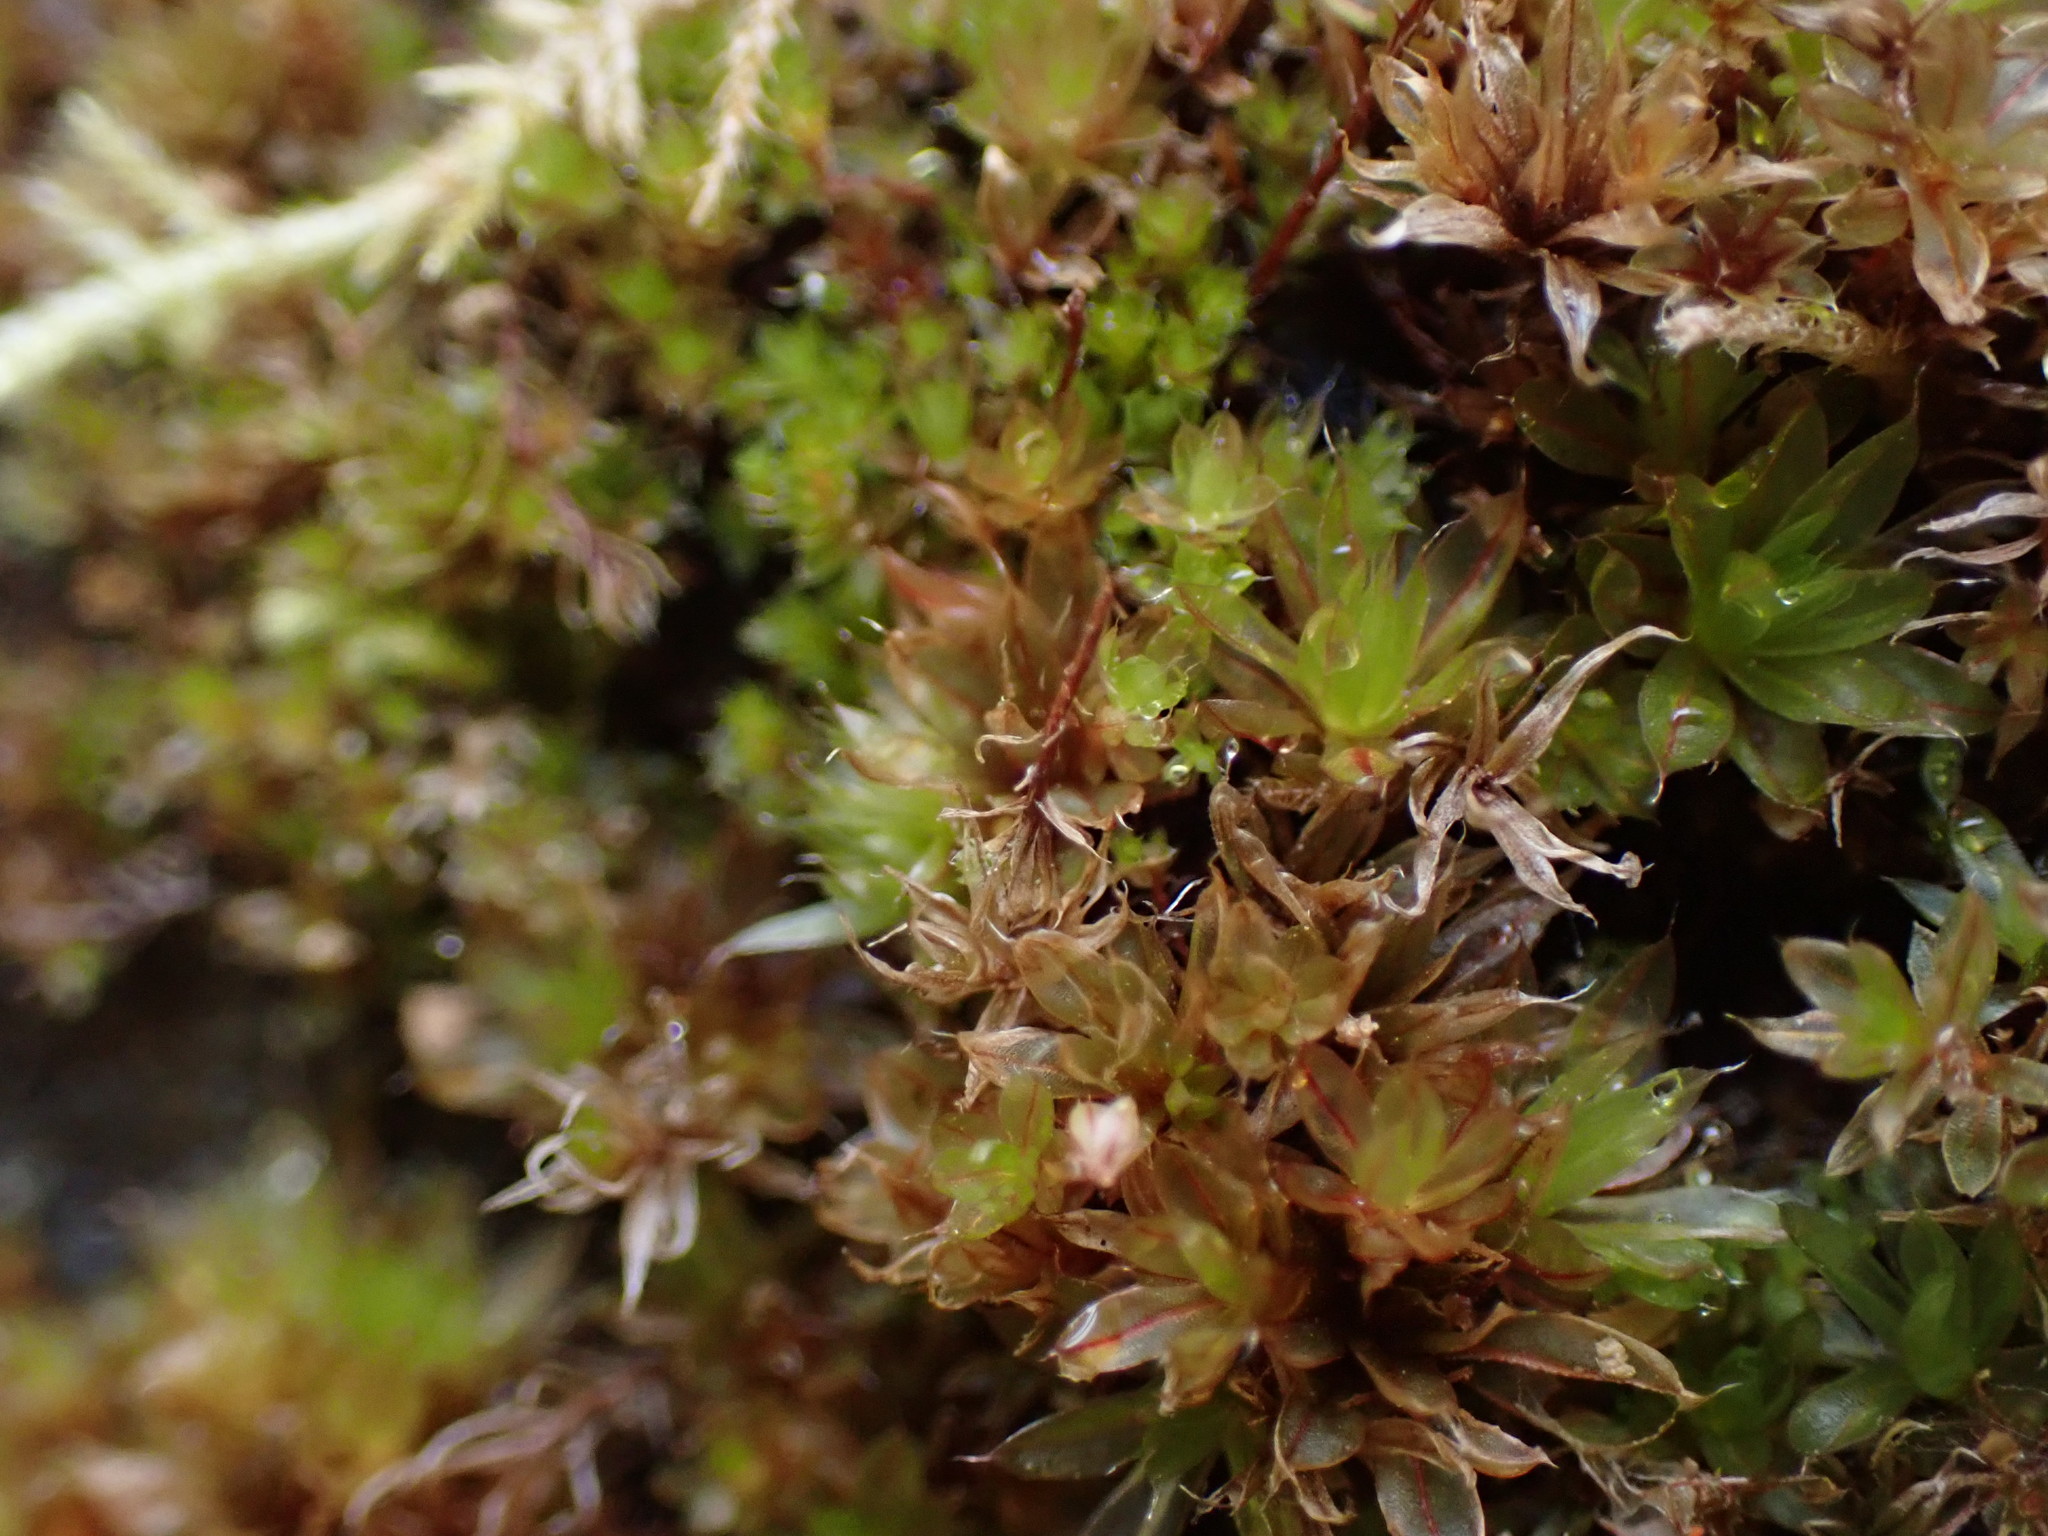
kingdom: Plantae
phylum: Bryophyta
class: Bryopsida
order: Bryales
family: Bryaceae
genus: Rosulabryum
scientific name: Rosulabryum capillare
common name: Capillary thread-moss
